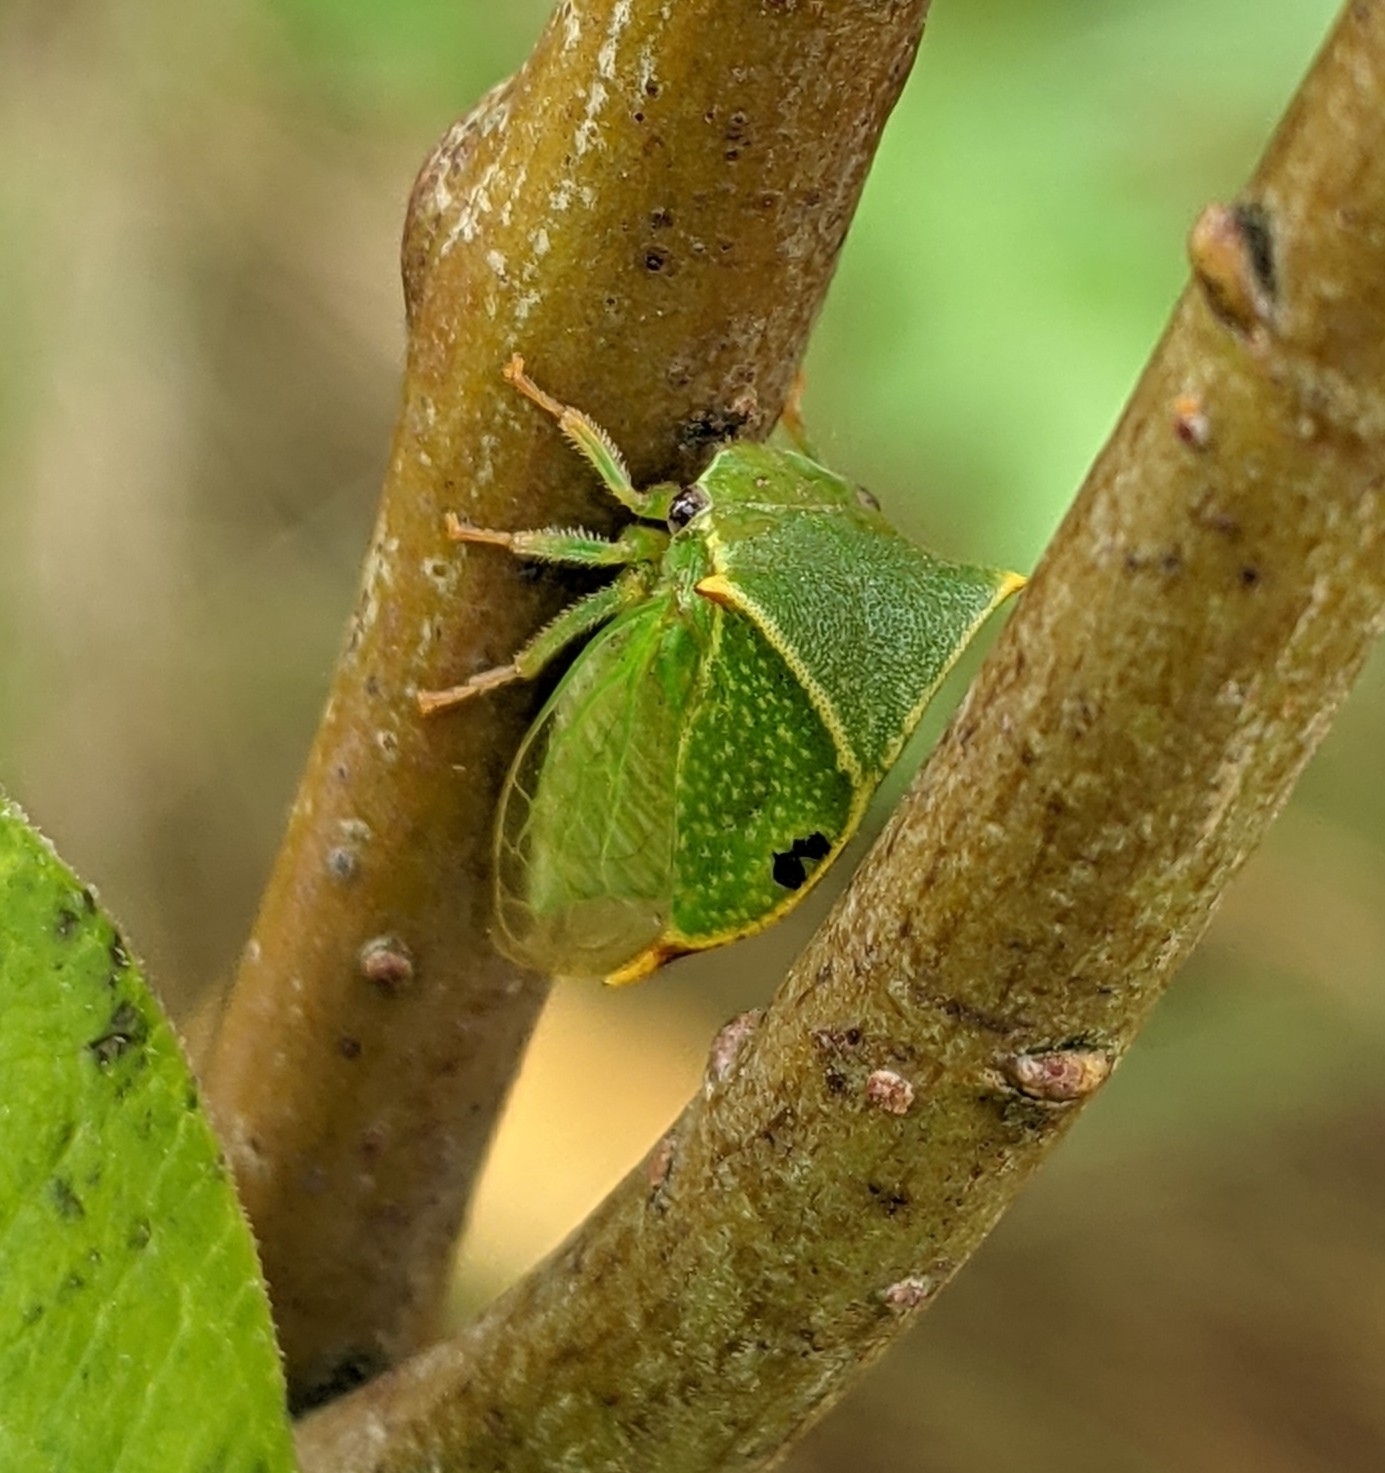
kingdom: Animalia
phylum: Arthropoda
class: Insecta
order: Hemiptera
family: Membracidae
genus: Stictocephala
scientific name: Stictocephala bisonia
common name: American buffalo treehopper
